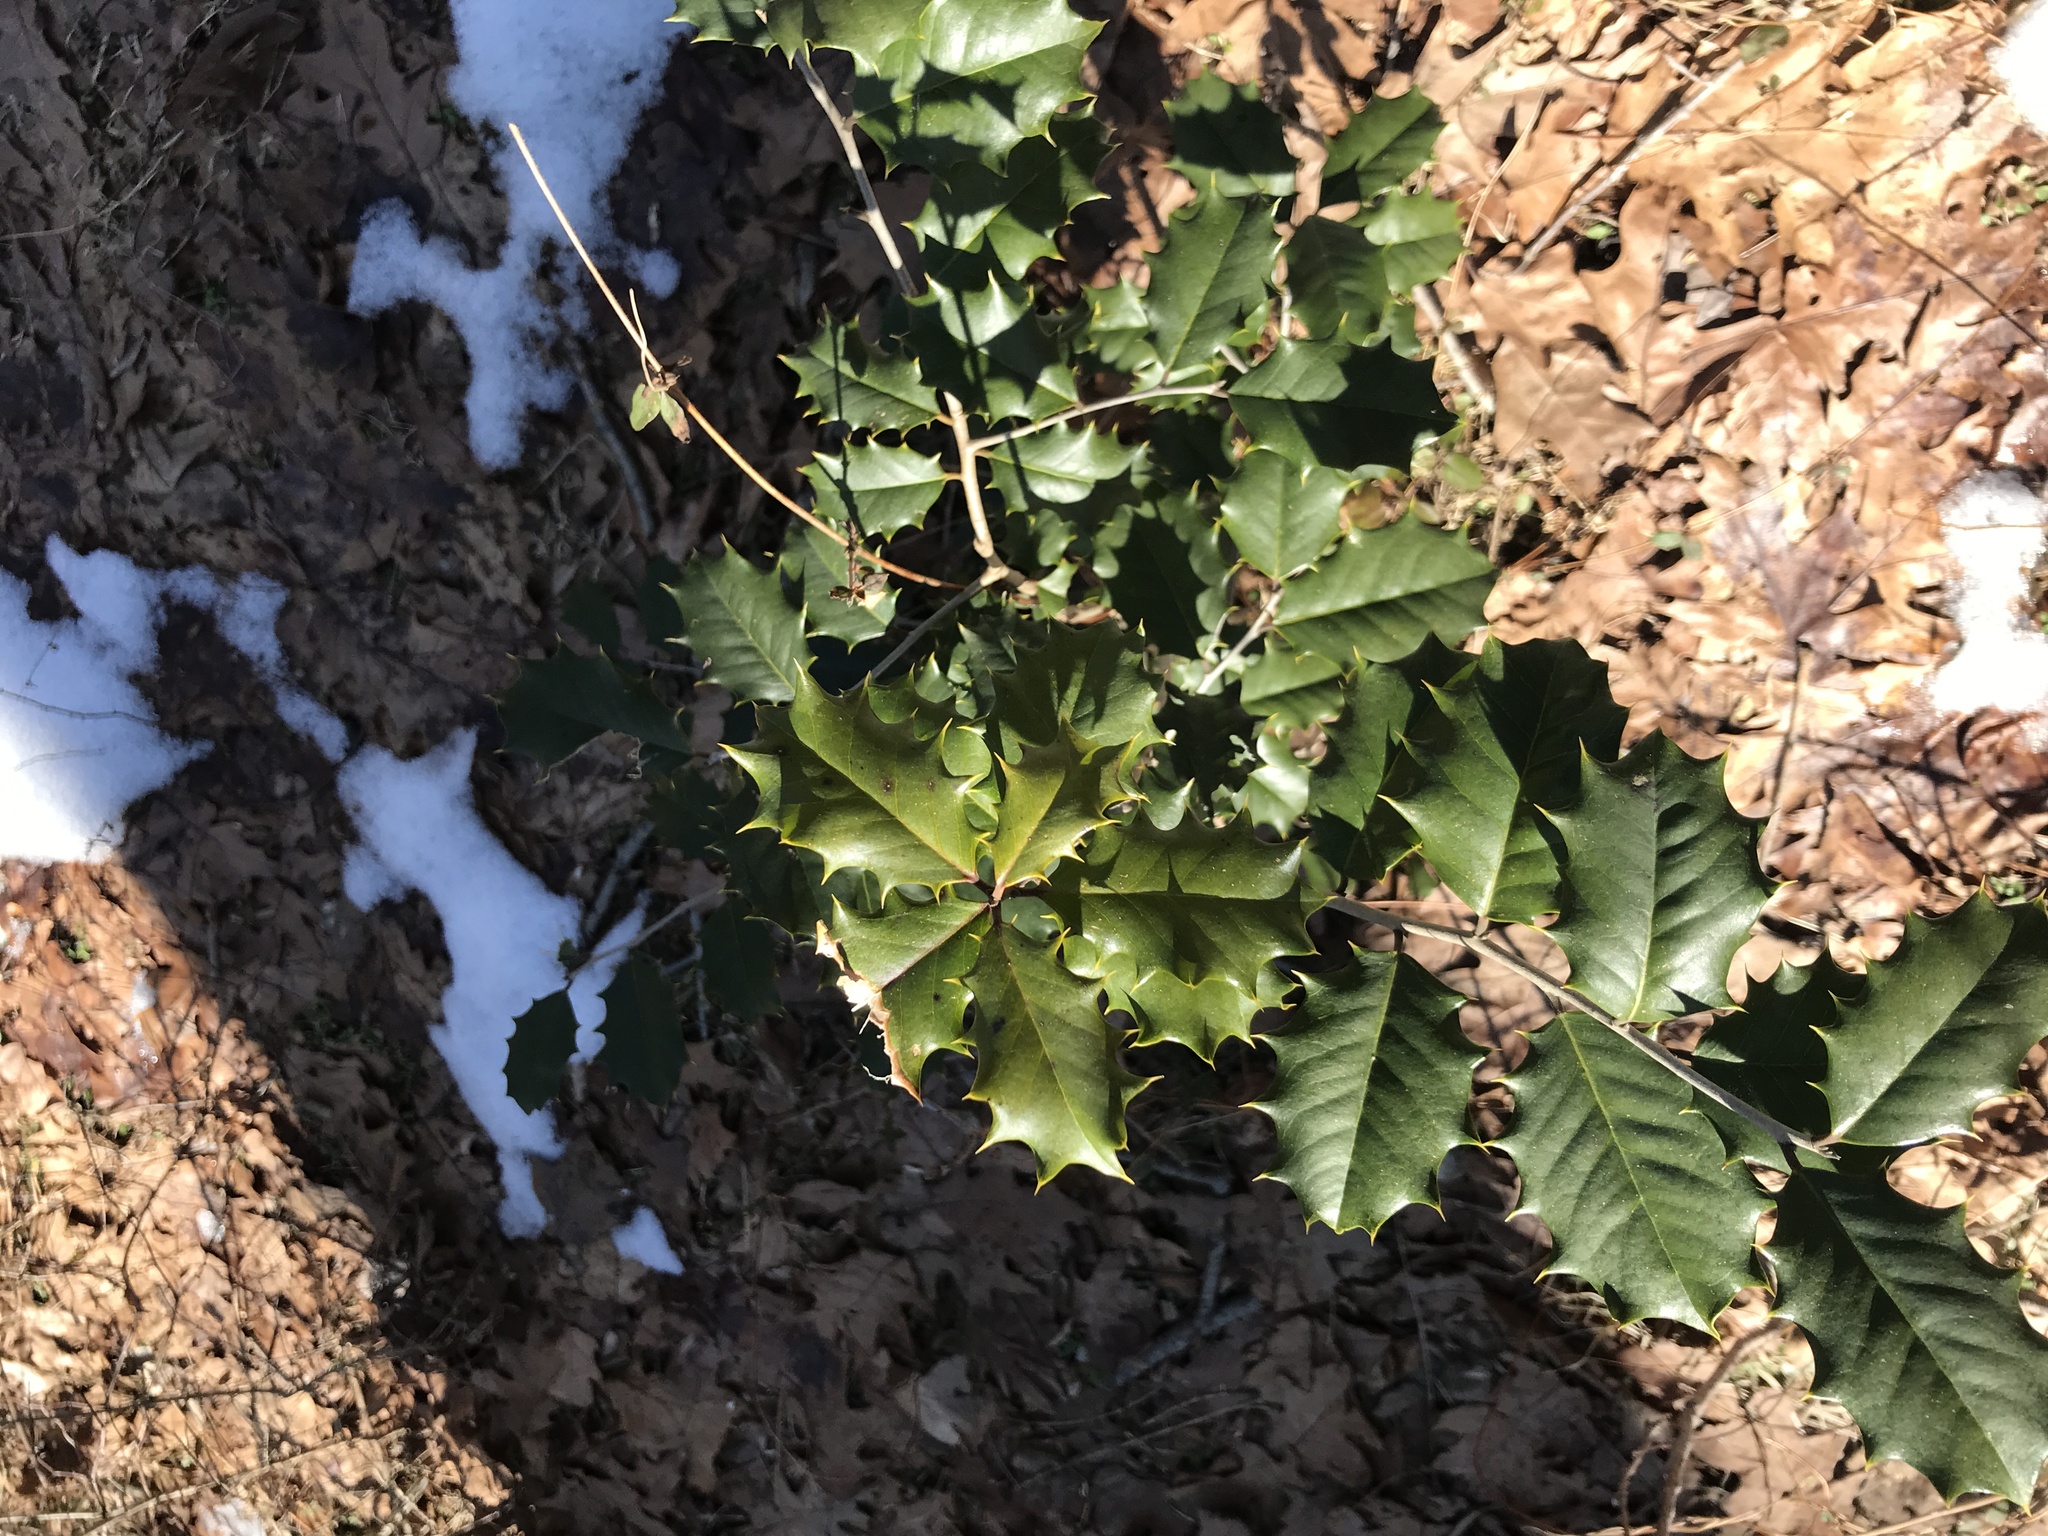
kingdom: Plantae
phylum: Tracheophyta
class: Magnoliopsida
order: Aquifoliales
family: Aquifoliaceae
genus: Ilex
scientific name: Ilex opaca
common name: American holly
